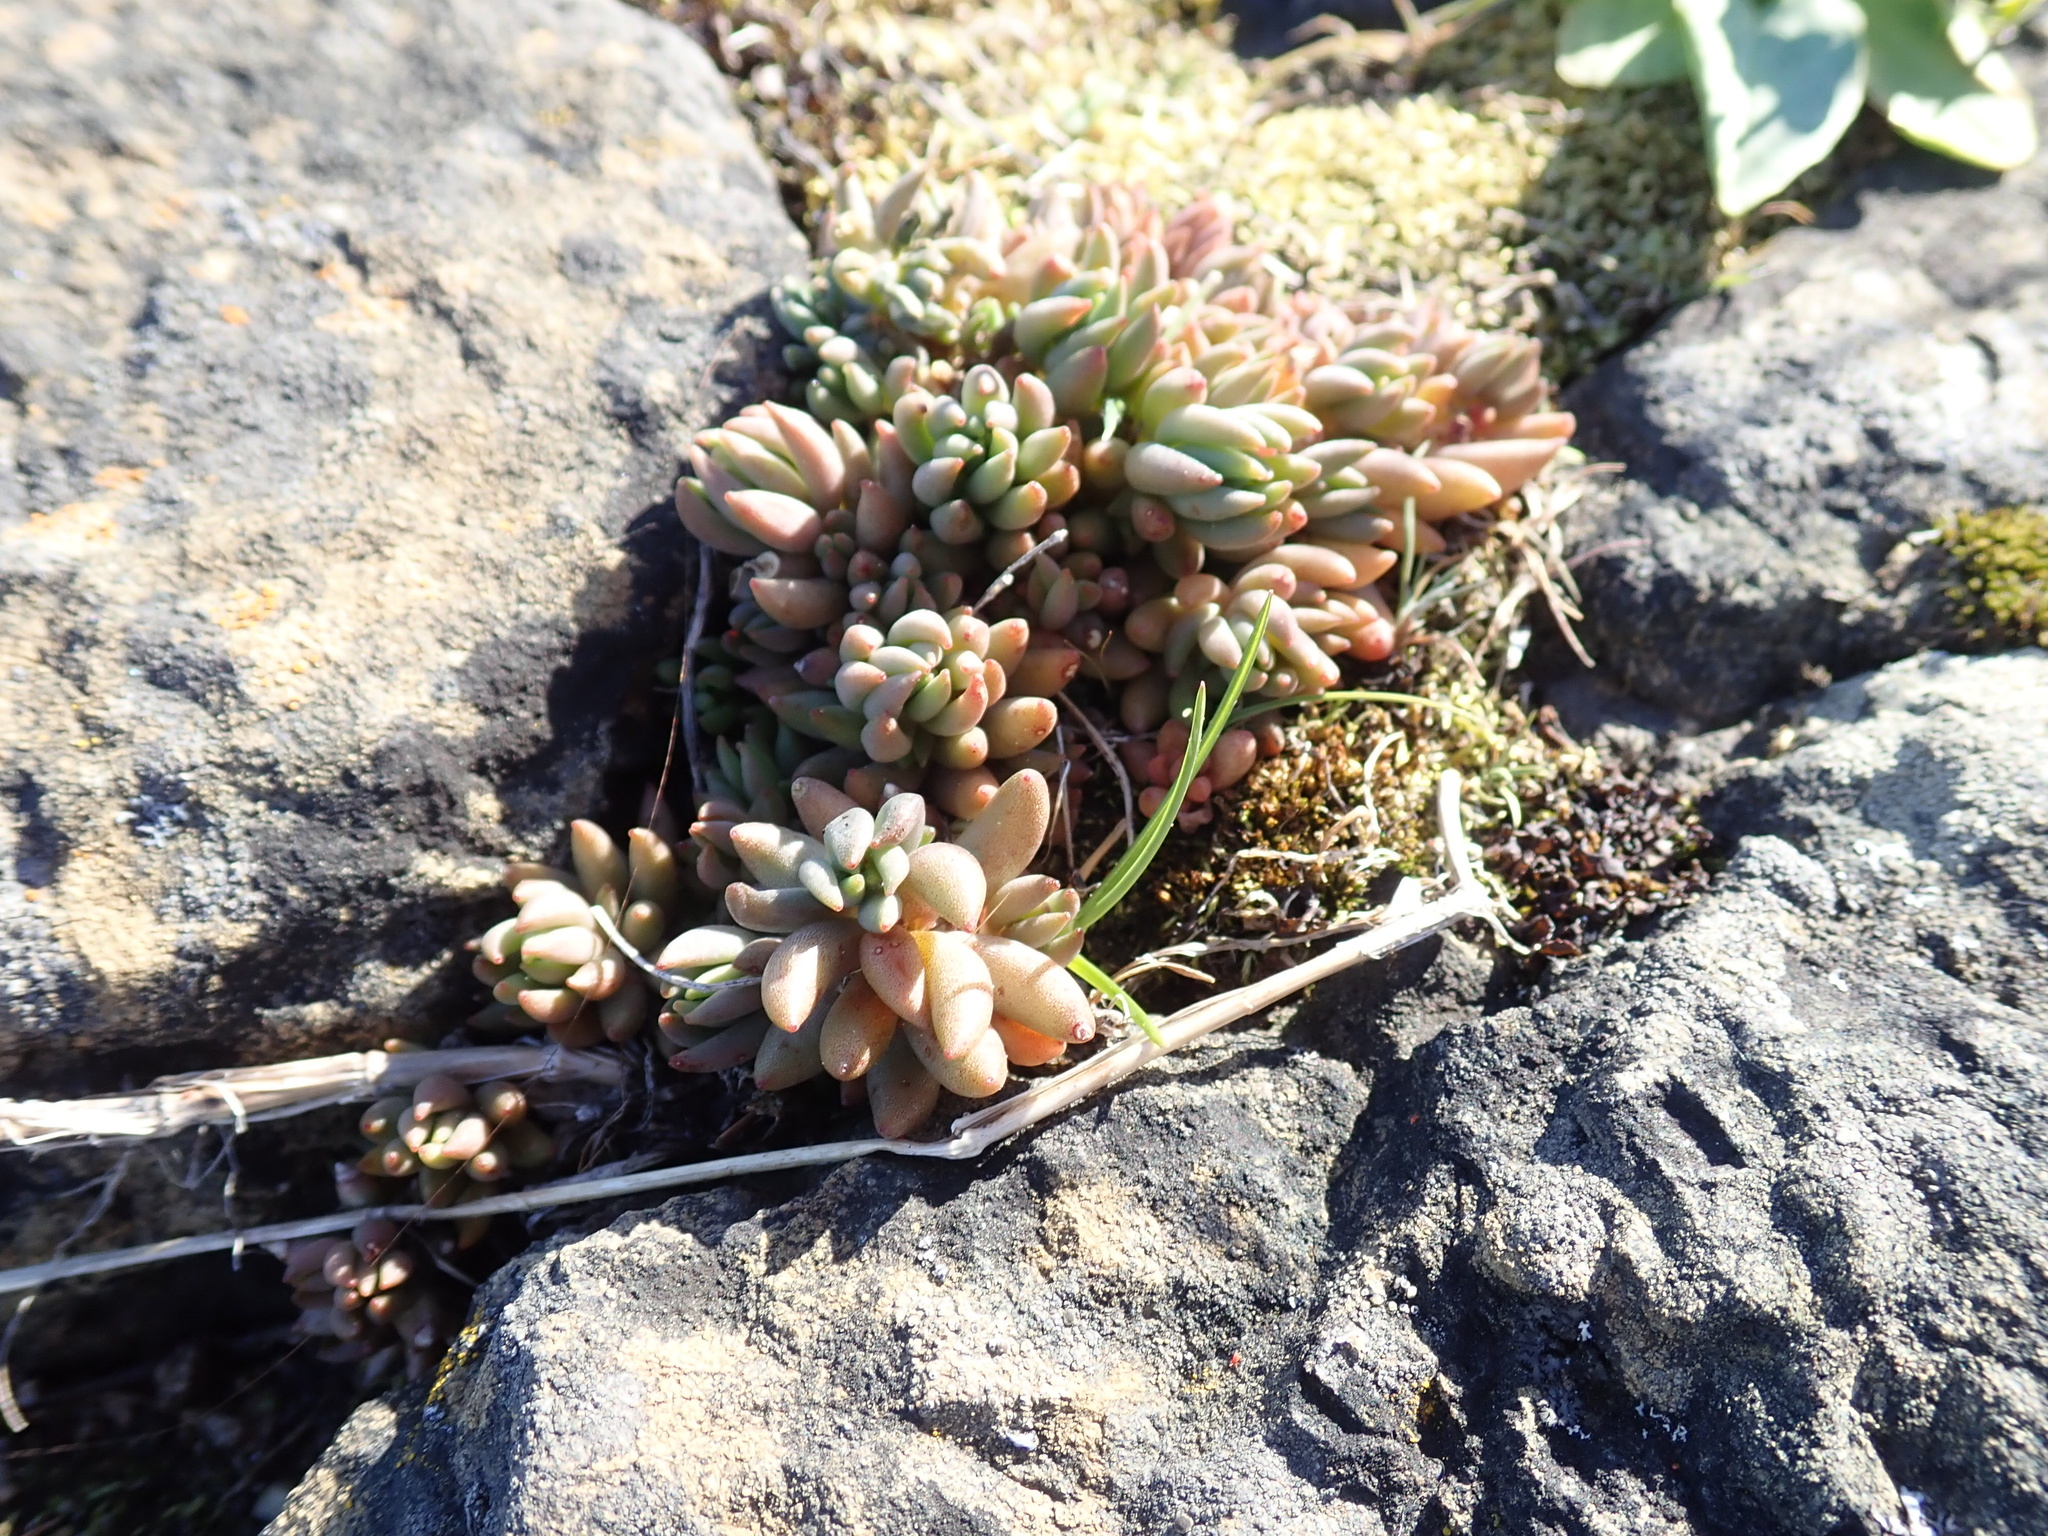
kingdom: Plantae
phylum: Tracheophyta
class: Magnoliopsida
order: Saxifragales
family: Crassulaceae
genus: Sedum
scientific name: Sedum lanceolatum
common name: Common stonecrop
